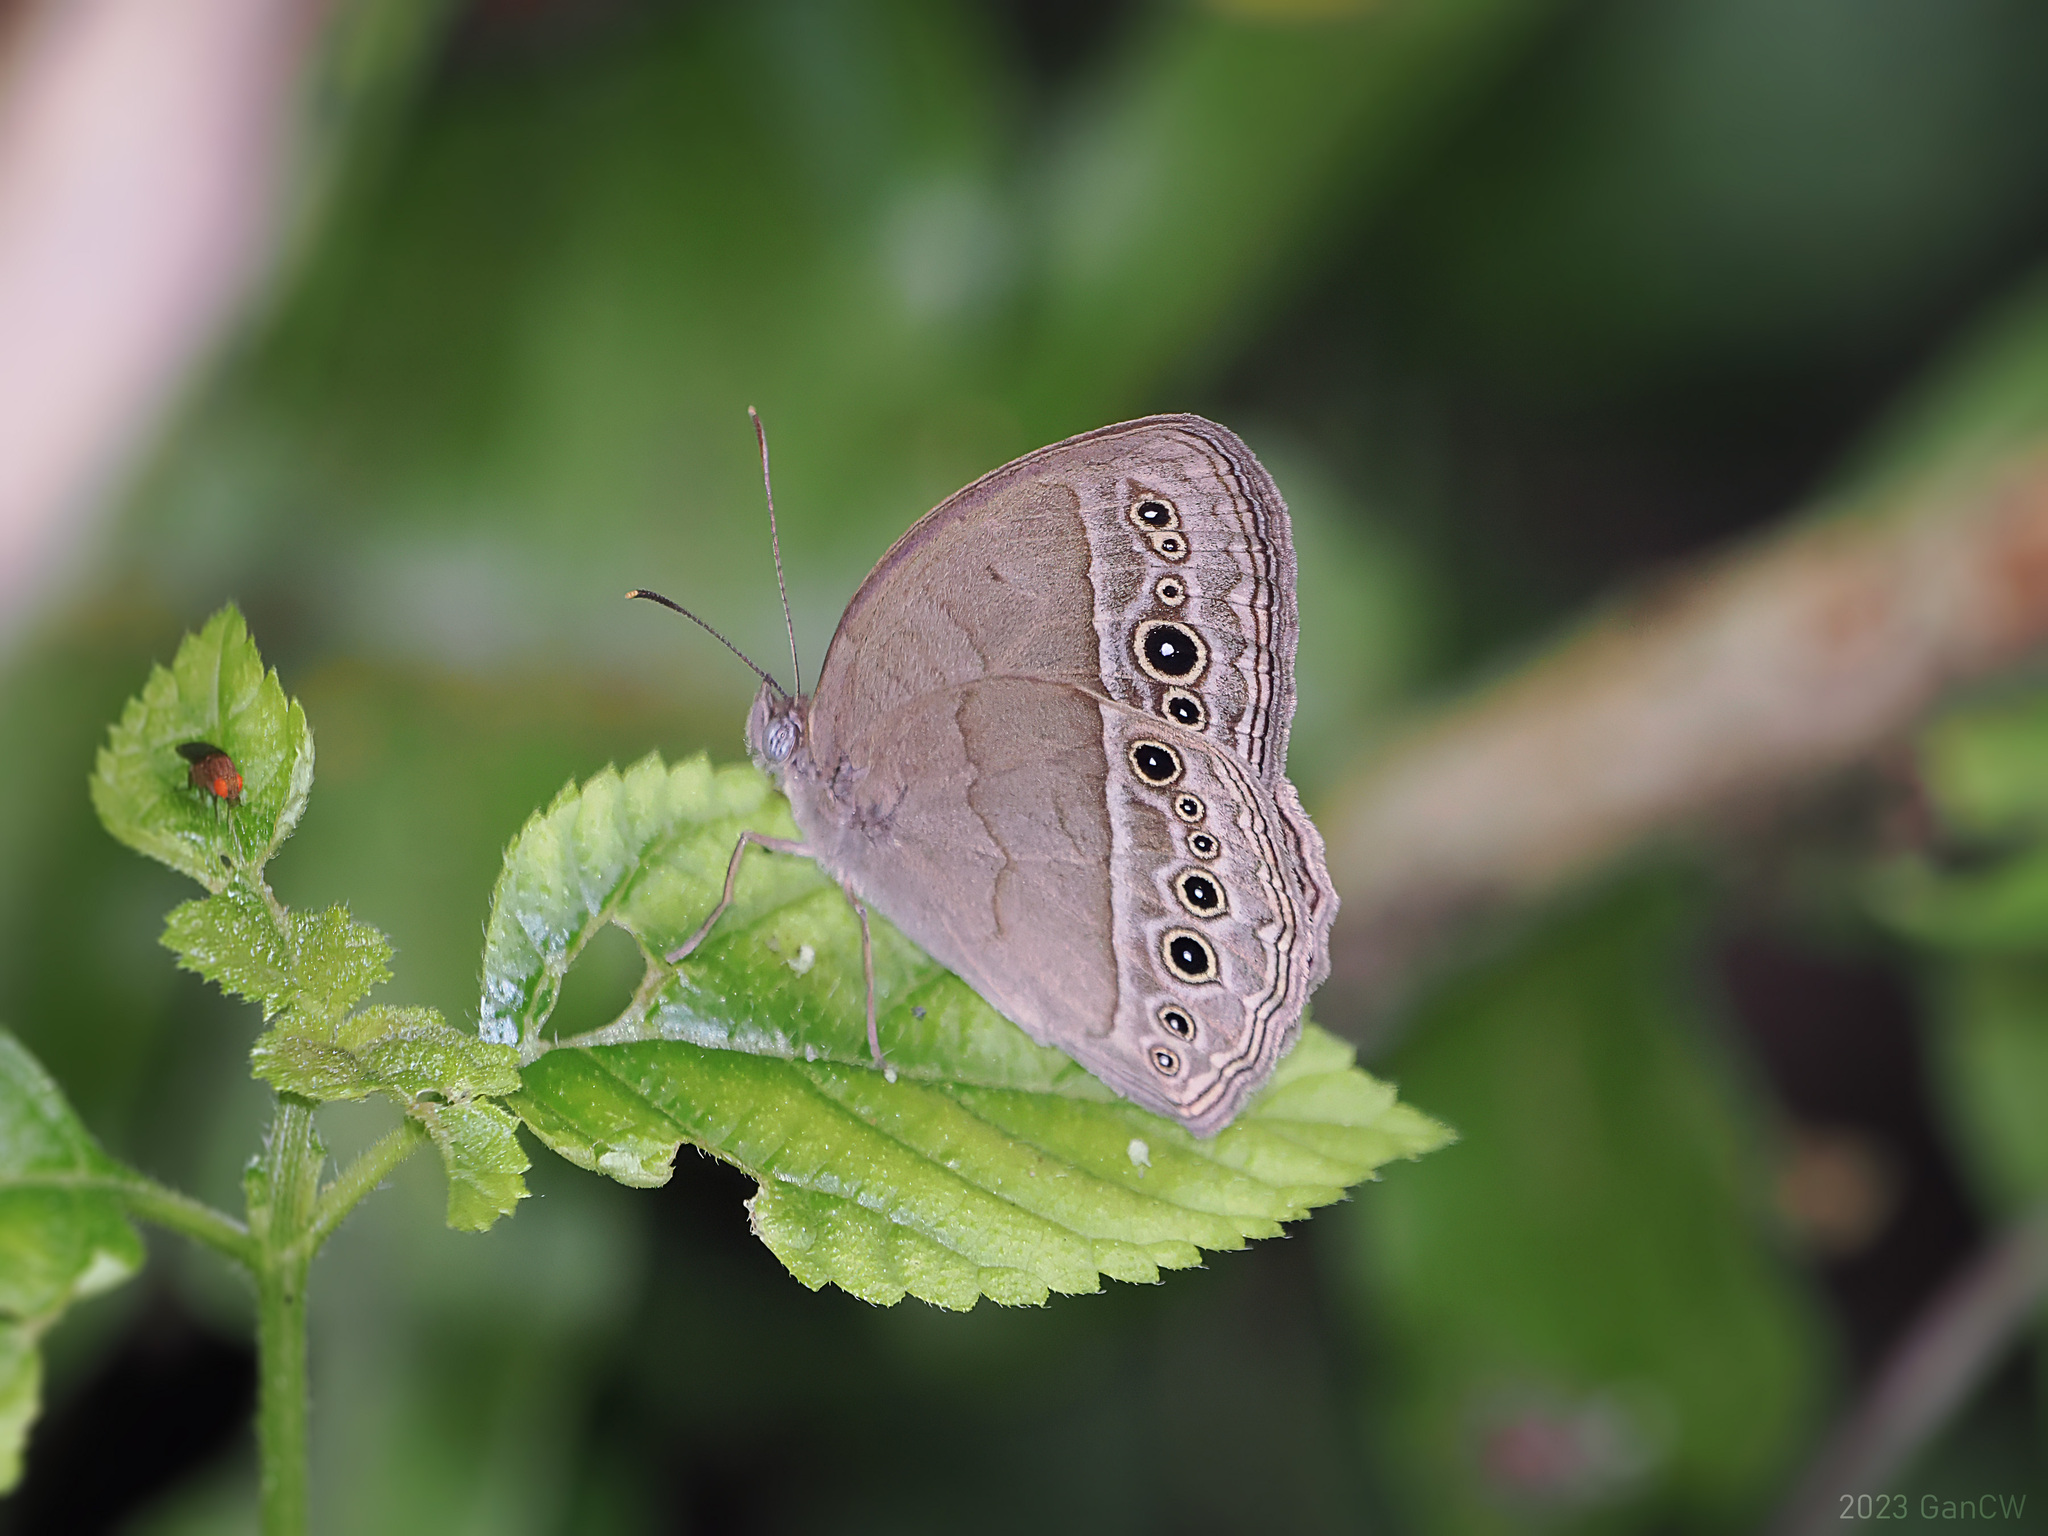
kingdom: Animalia
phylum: Arthropoda
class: Insecta
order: Lepidoptera
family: Nymphalidae
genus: Mycalesis
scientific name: Mycalesis horsfieldii
